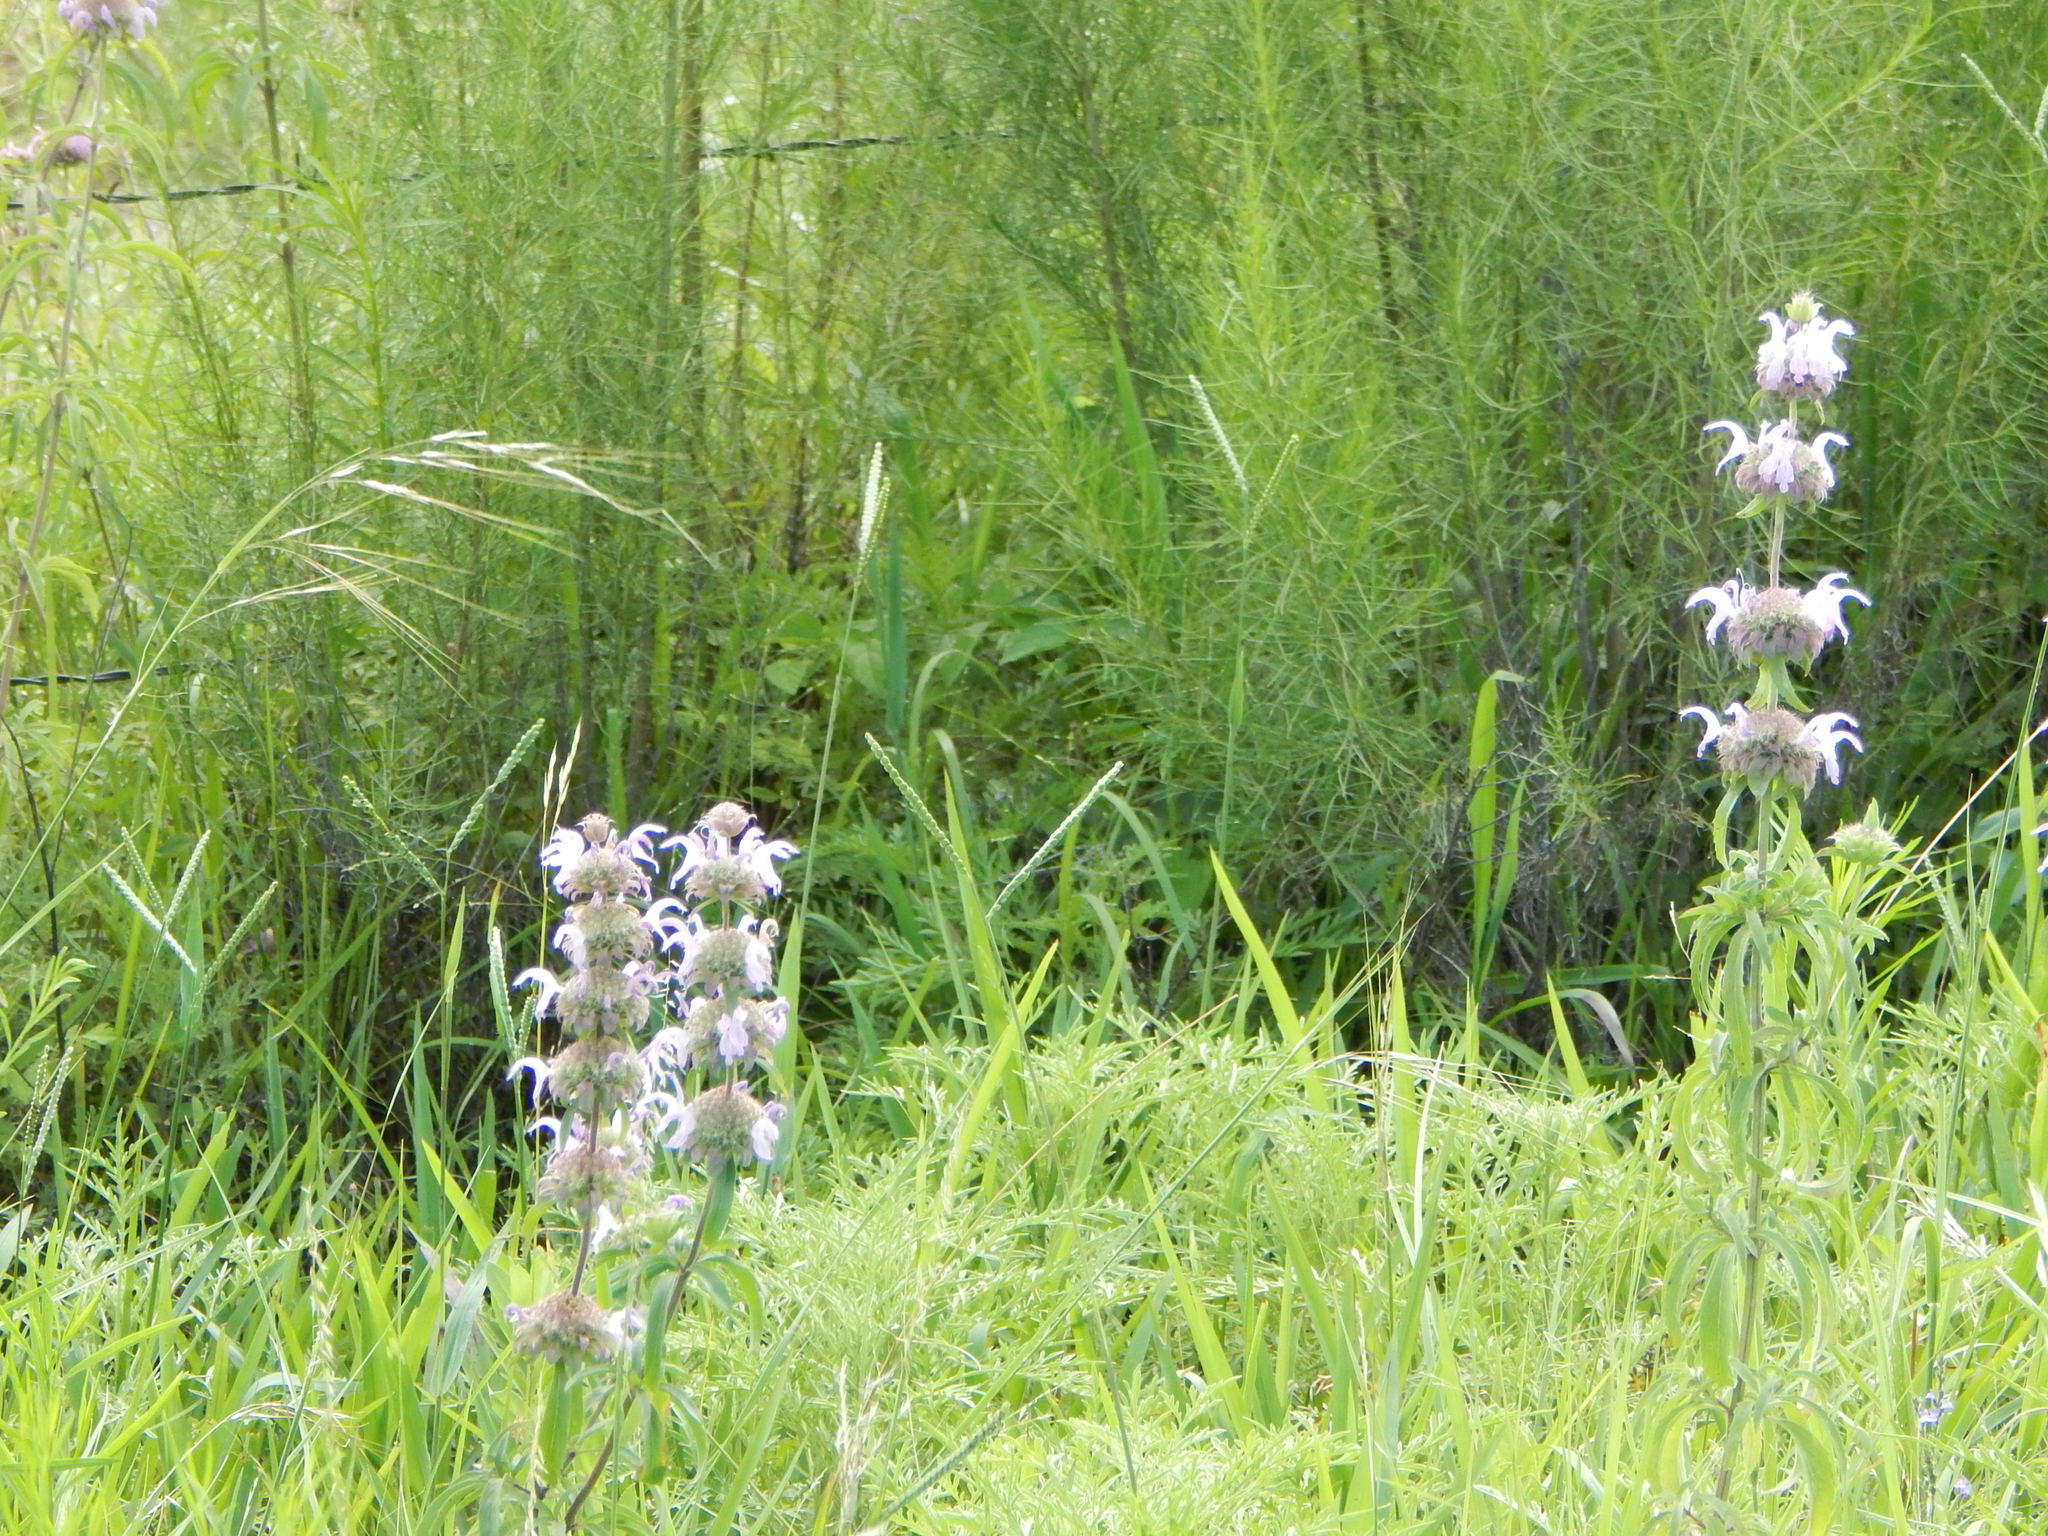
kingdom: Plantae
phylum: Tracheophyta
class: Magnoliopsida
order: Lamiales
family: Lamiaceae
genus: Monarda
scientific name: Monarda citriodora
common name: Lemon beebalm
